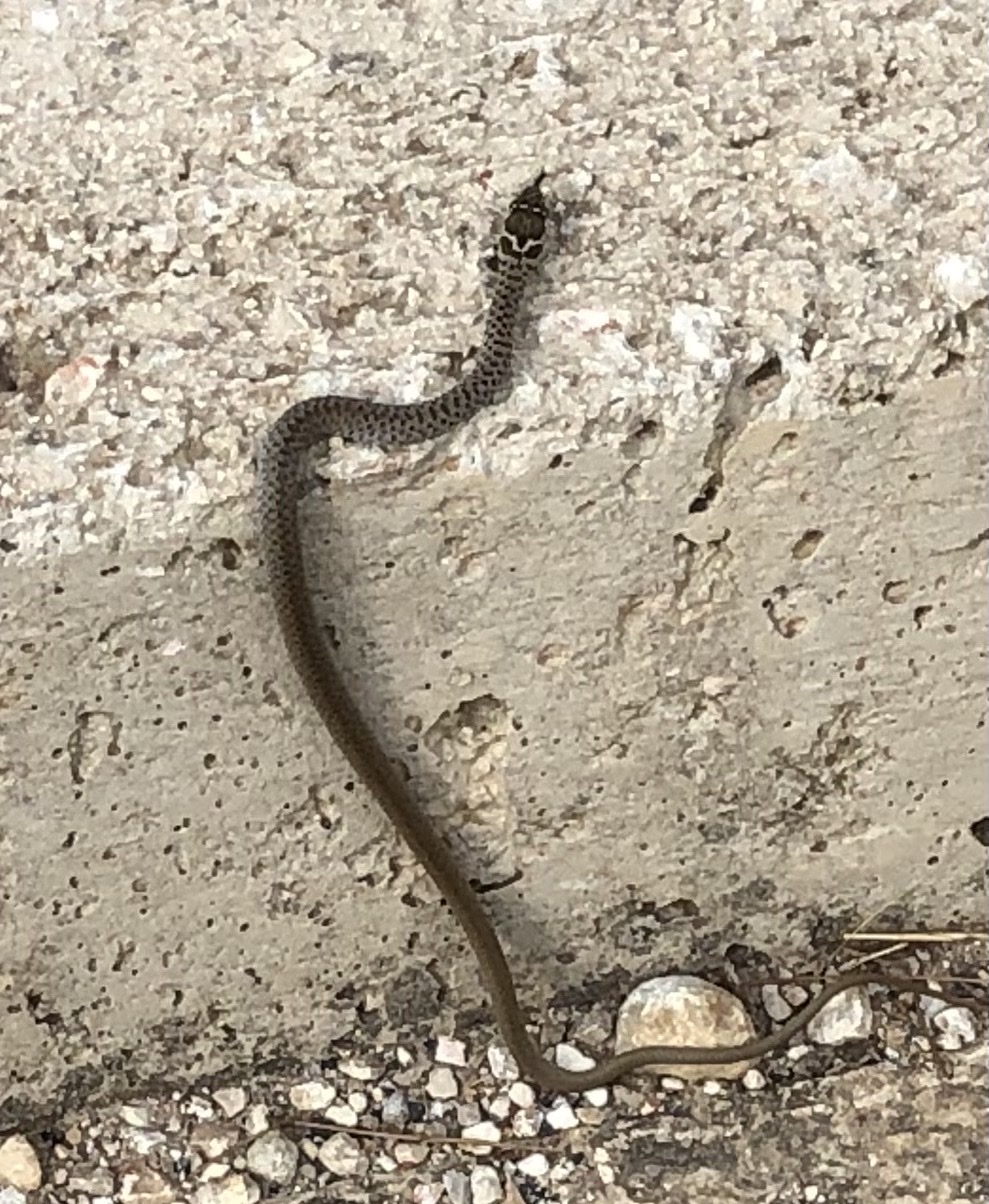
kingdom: Animalia
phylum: Chordata
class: Squamata
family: Colubridae
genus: Hierophis
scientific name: Hierophis gemonensis
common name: Balkan whip snake
